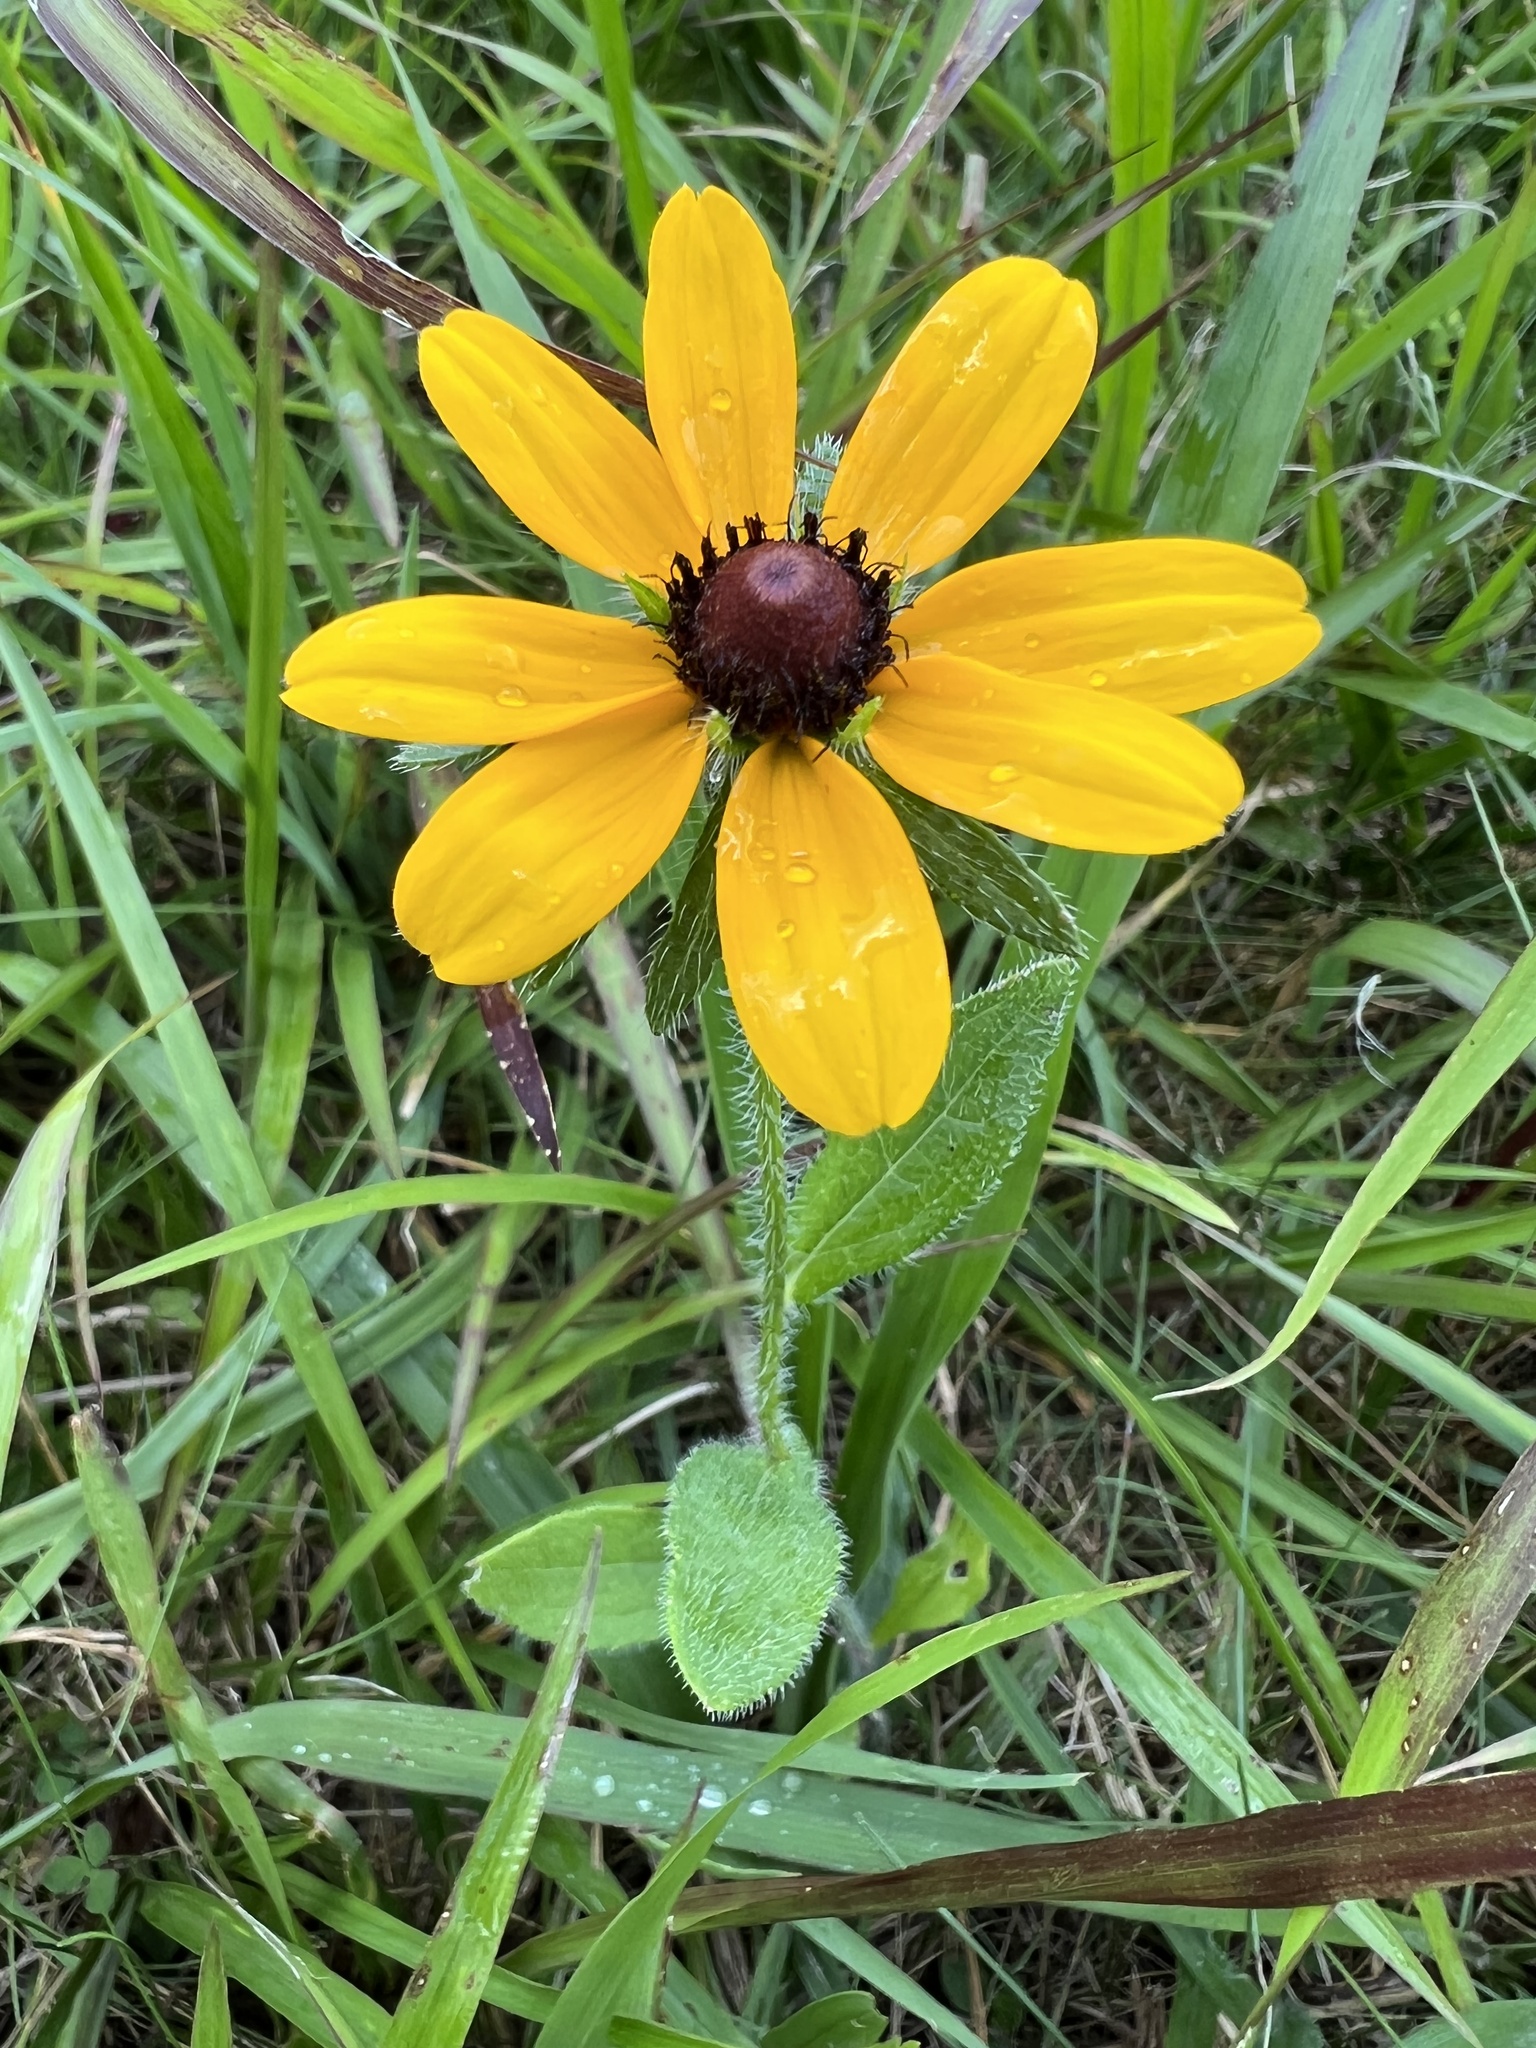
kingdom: Plantae
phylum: Tracheophyta
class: Magnoliopsida
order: Asterales
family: Asteraceae
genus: Rudbeckia
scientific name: Rudbeckia hirta
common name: Black-eyed-susan
